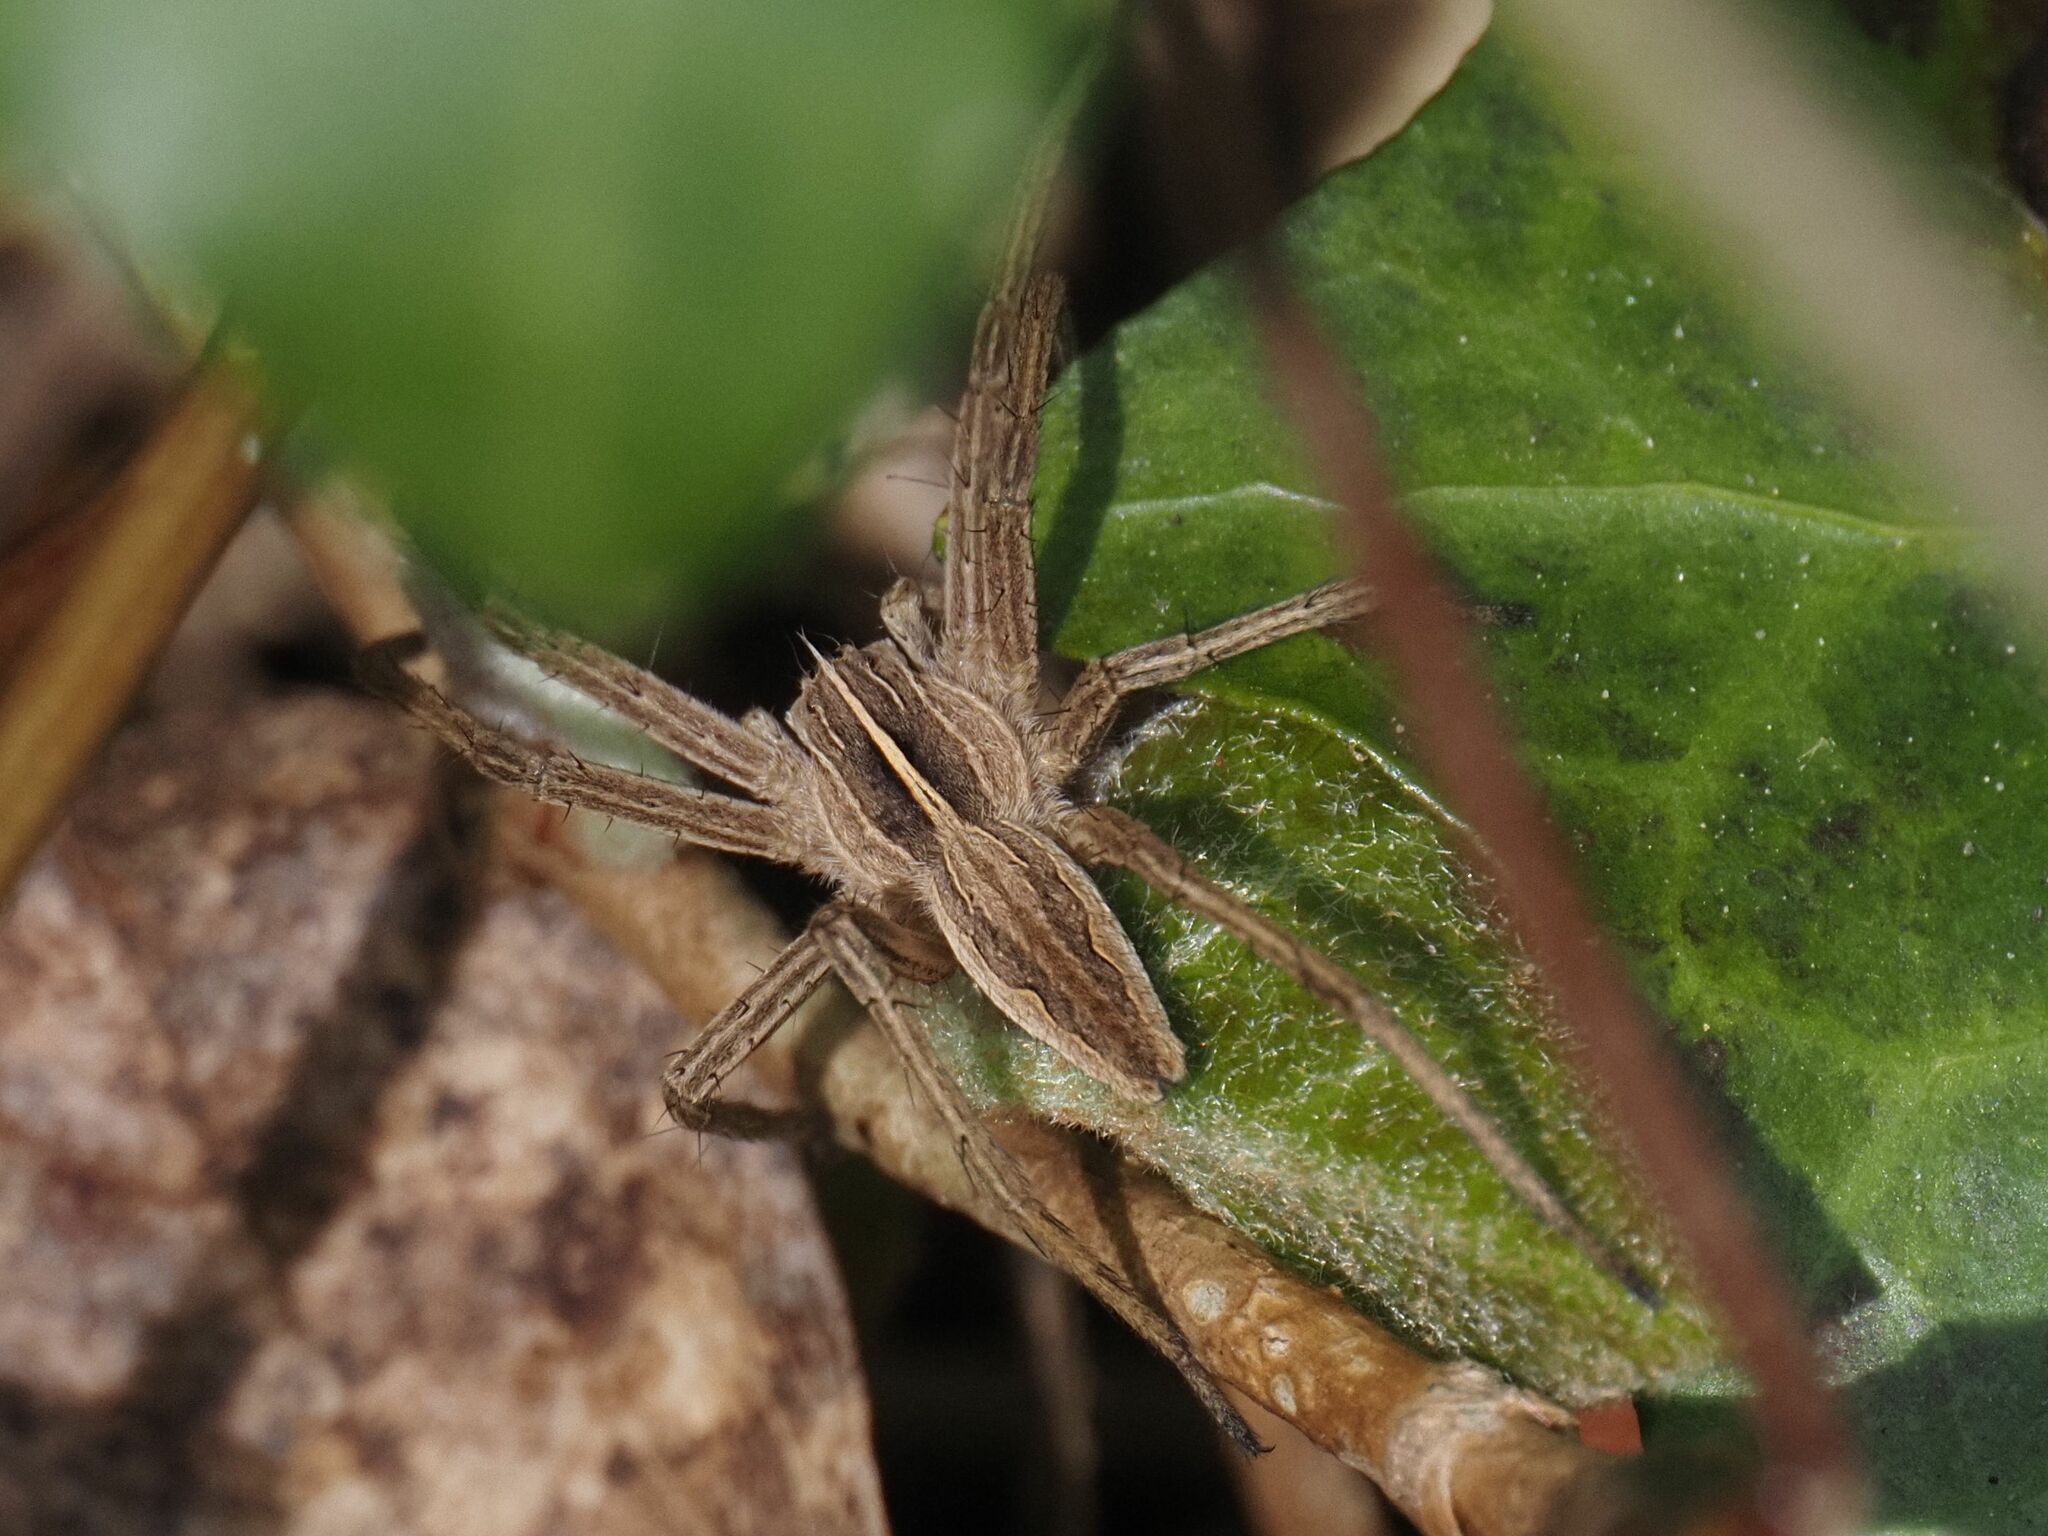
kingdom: Animalia
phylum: Arthropoda
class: Arachnida
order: Araneae
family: Pisauridae
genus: Pisaura
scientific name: Pisaura mirabilis
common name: Tent spider
